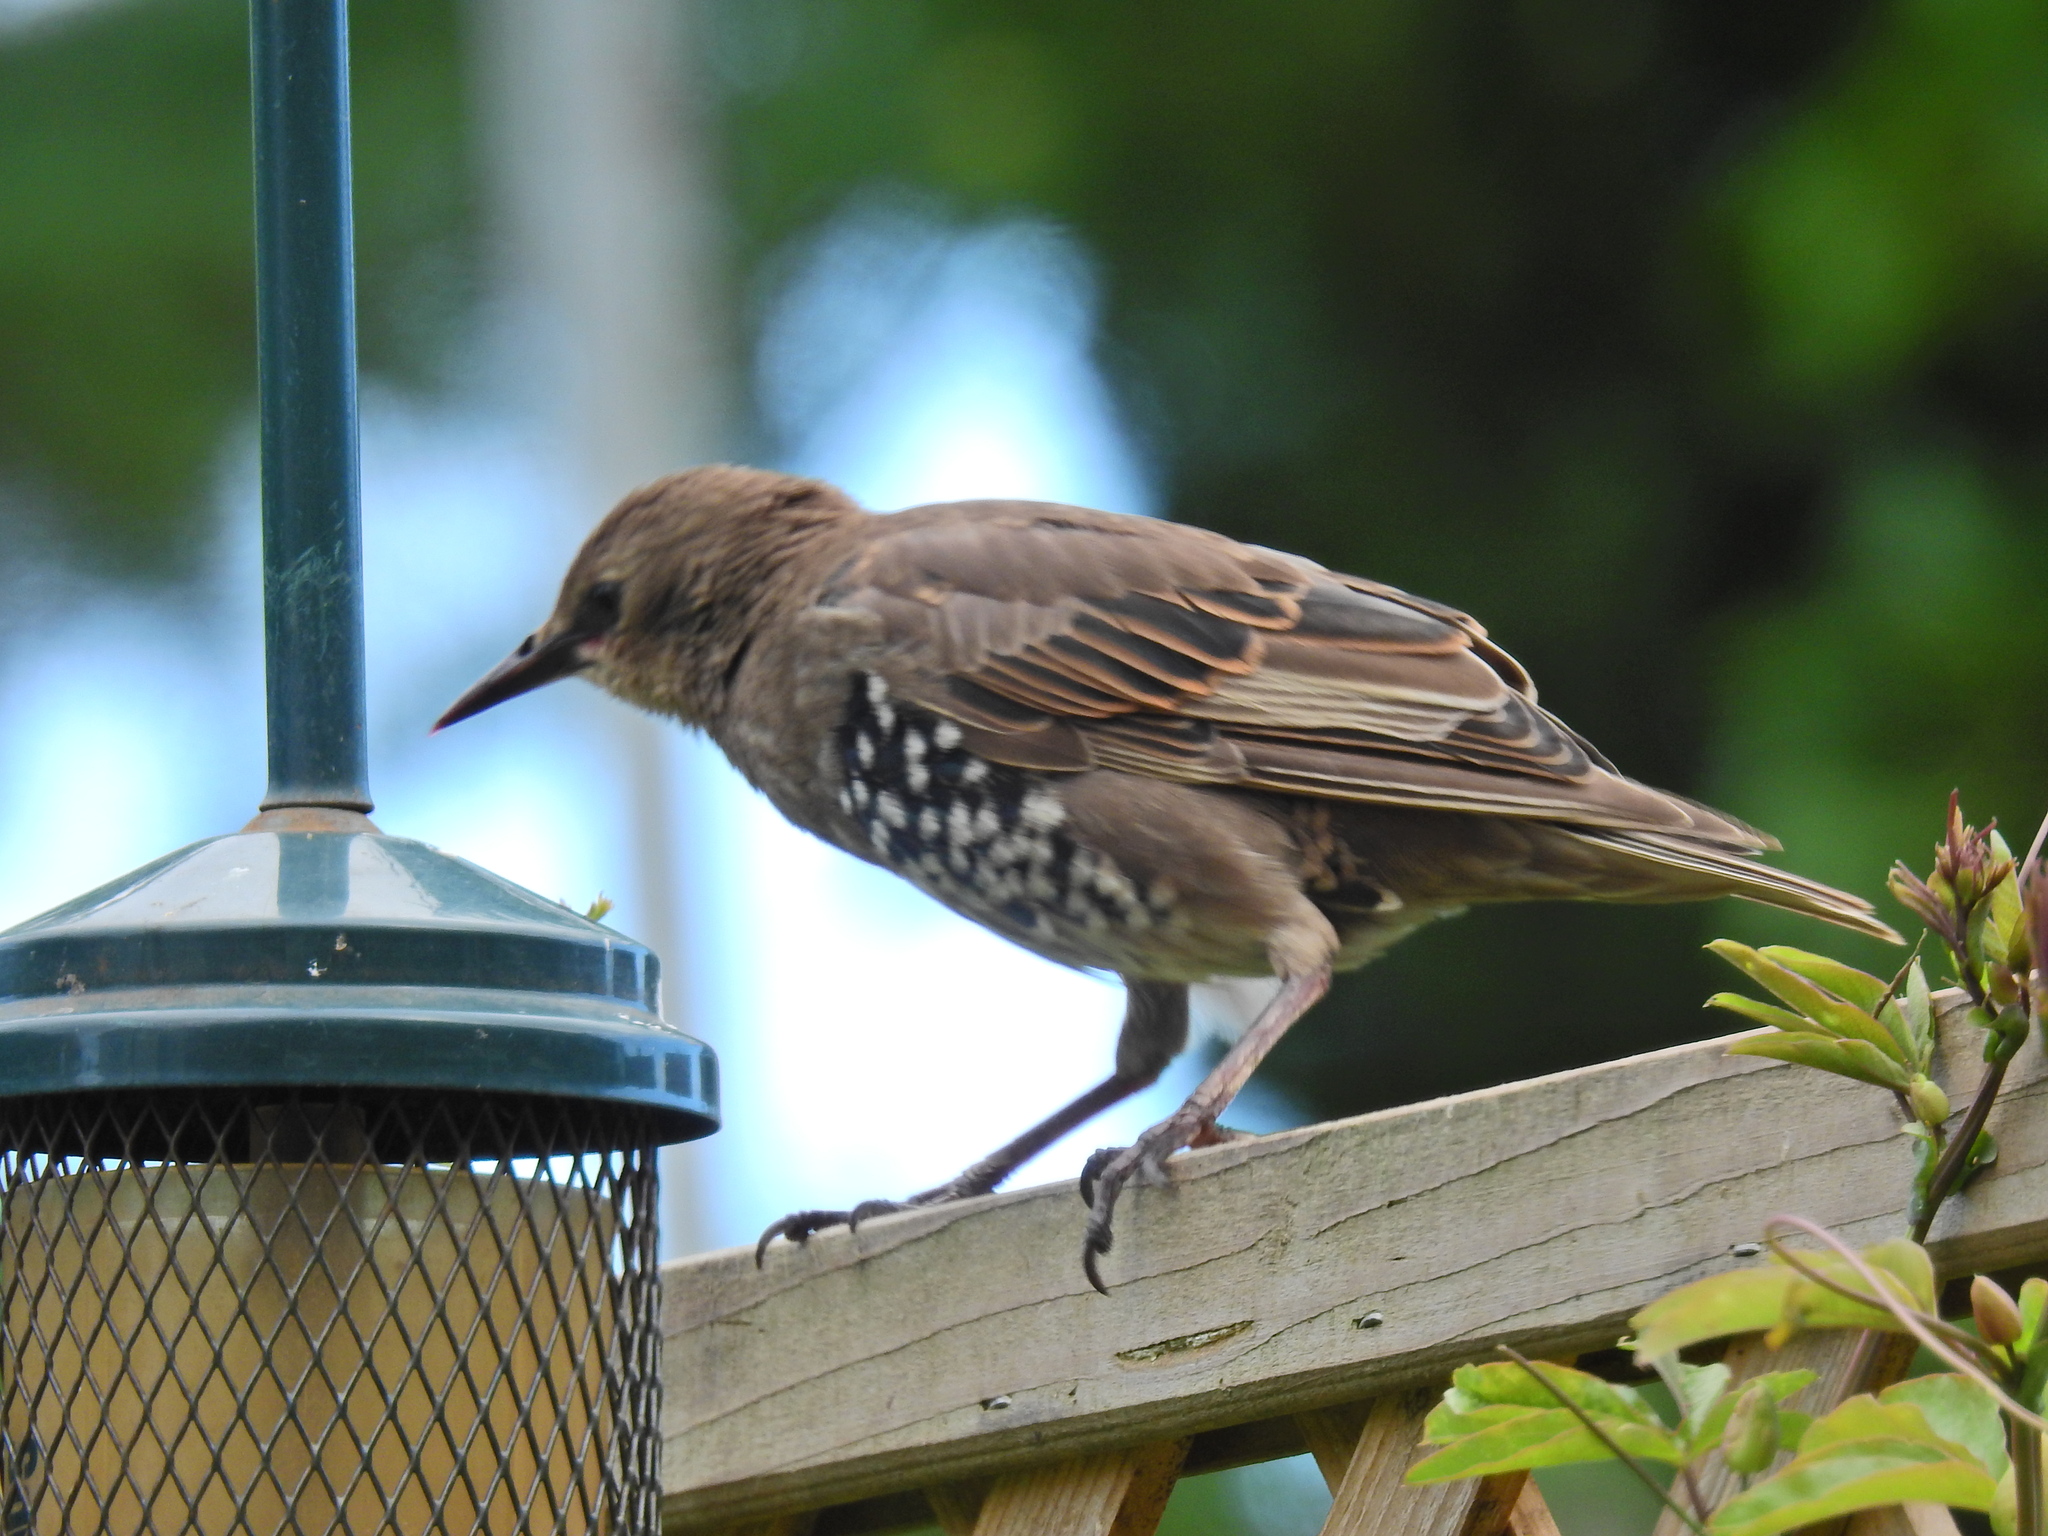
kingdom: Animalia
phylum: Chordata
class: Aves
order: Passeriformes
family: Sturnidae
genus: Sturnus
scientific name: Sturnus vulgaris
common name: Common starling
